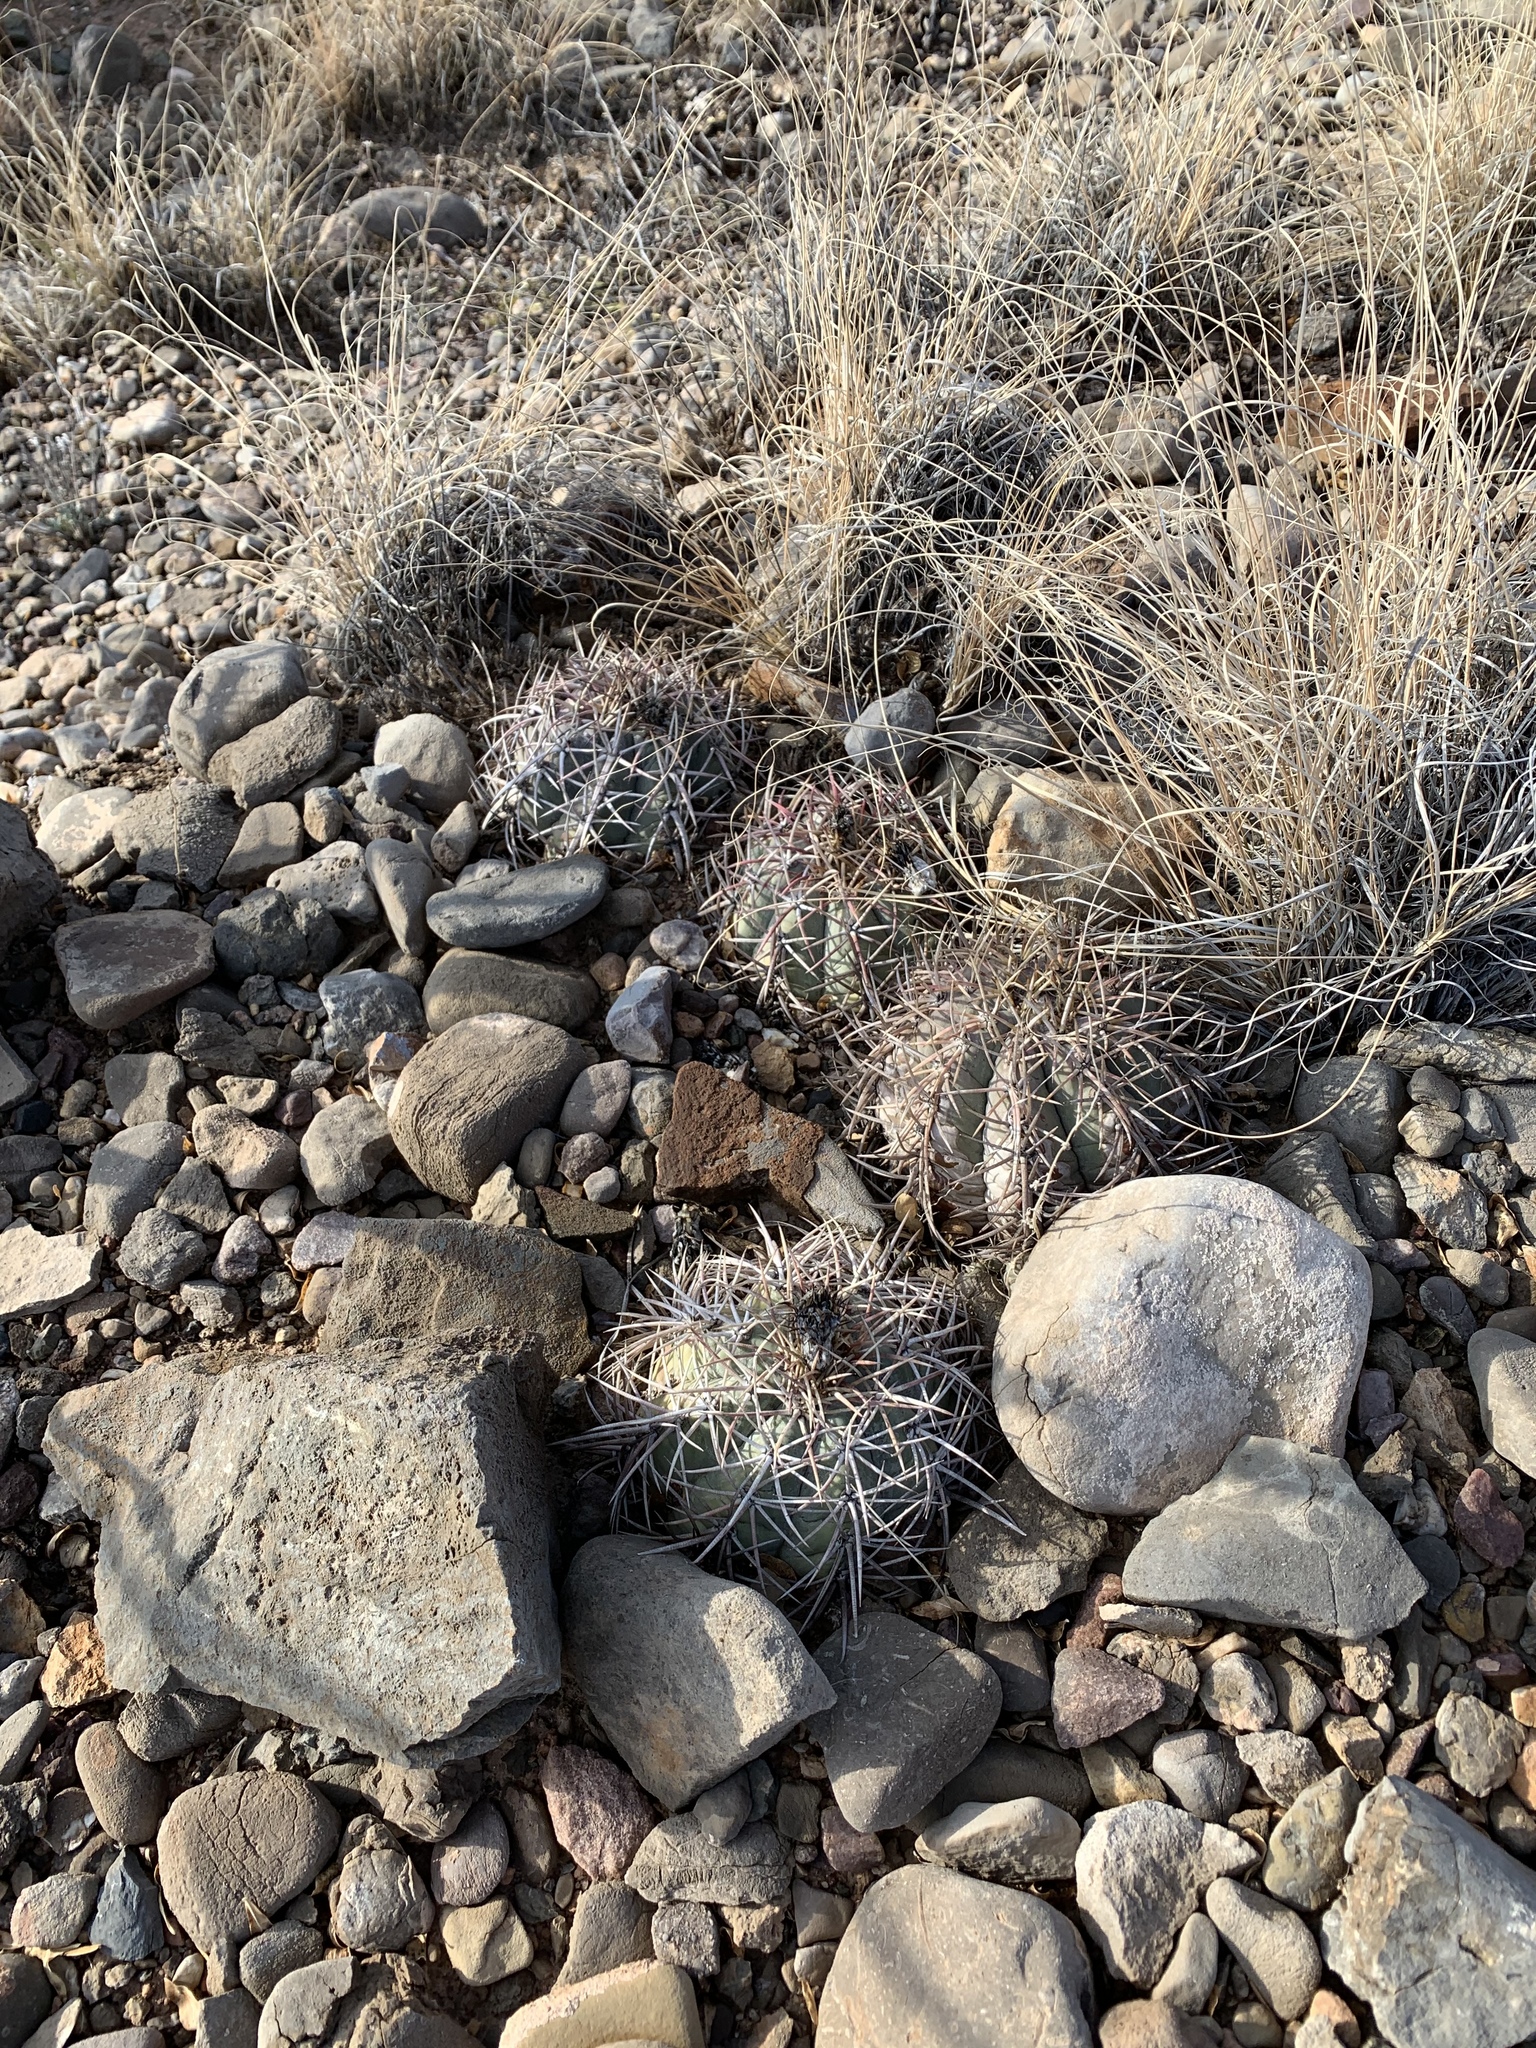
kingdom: Plantae
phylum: Tracheophyta
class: Magnoliopsida
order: Caryophyllales
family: Cactaceae
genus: Echinocactus
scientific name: Echinocactus horizonthalonius
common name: Devilshead
